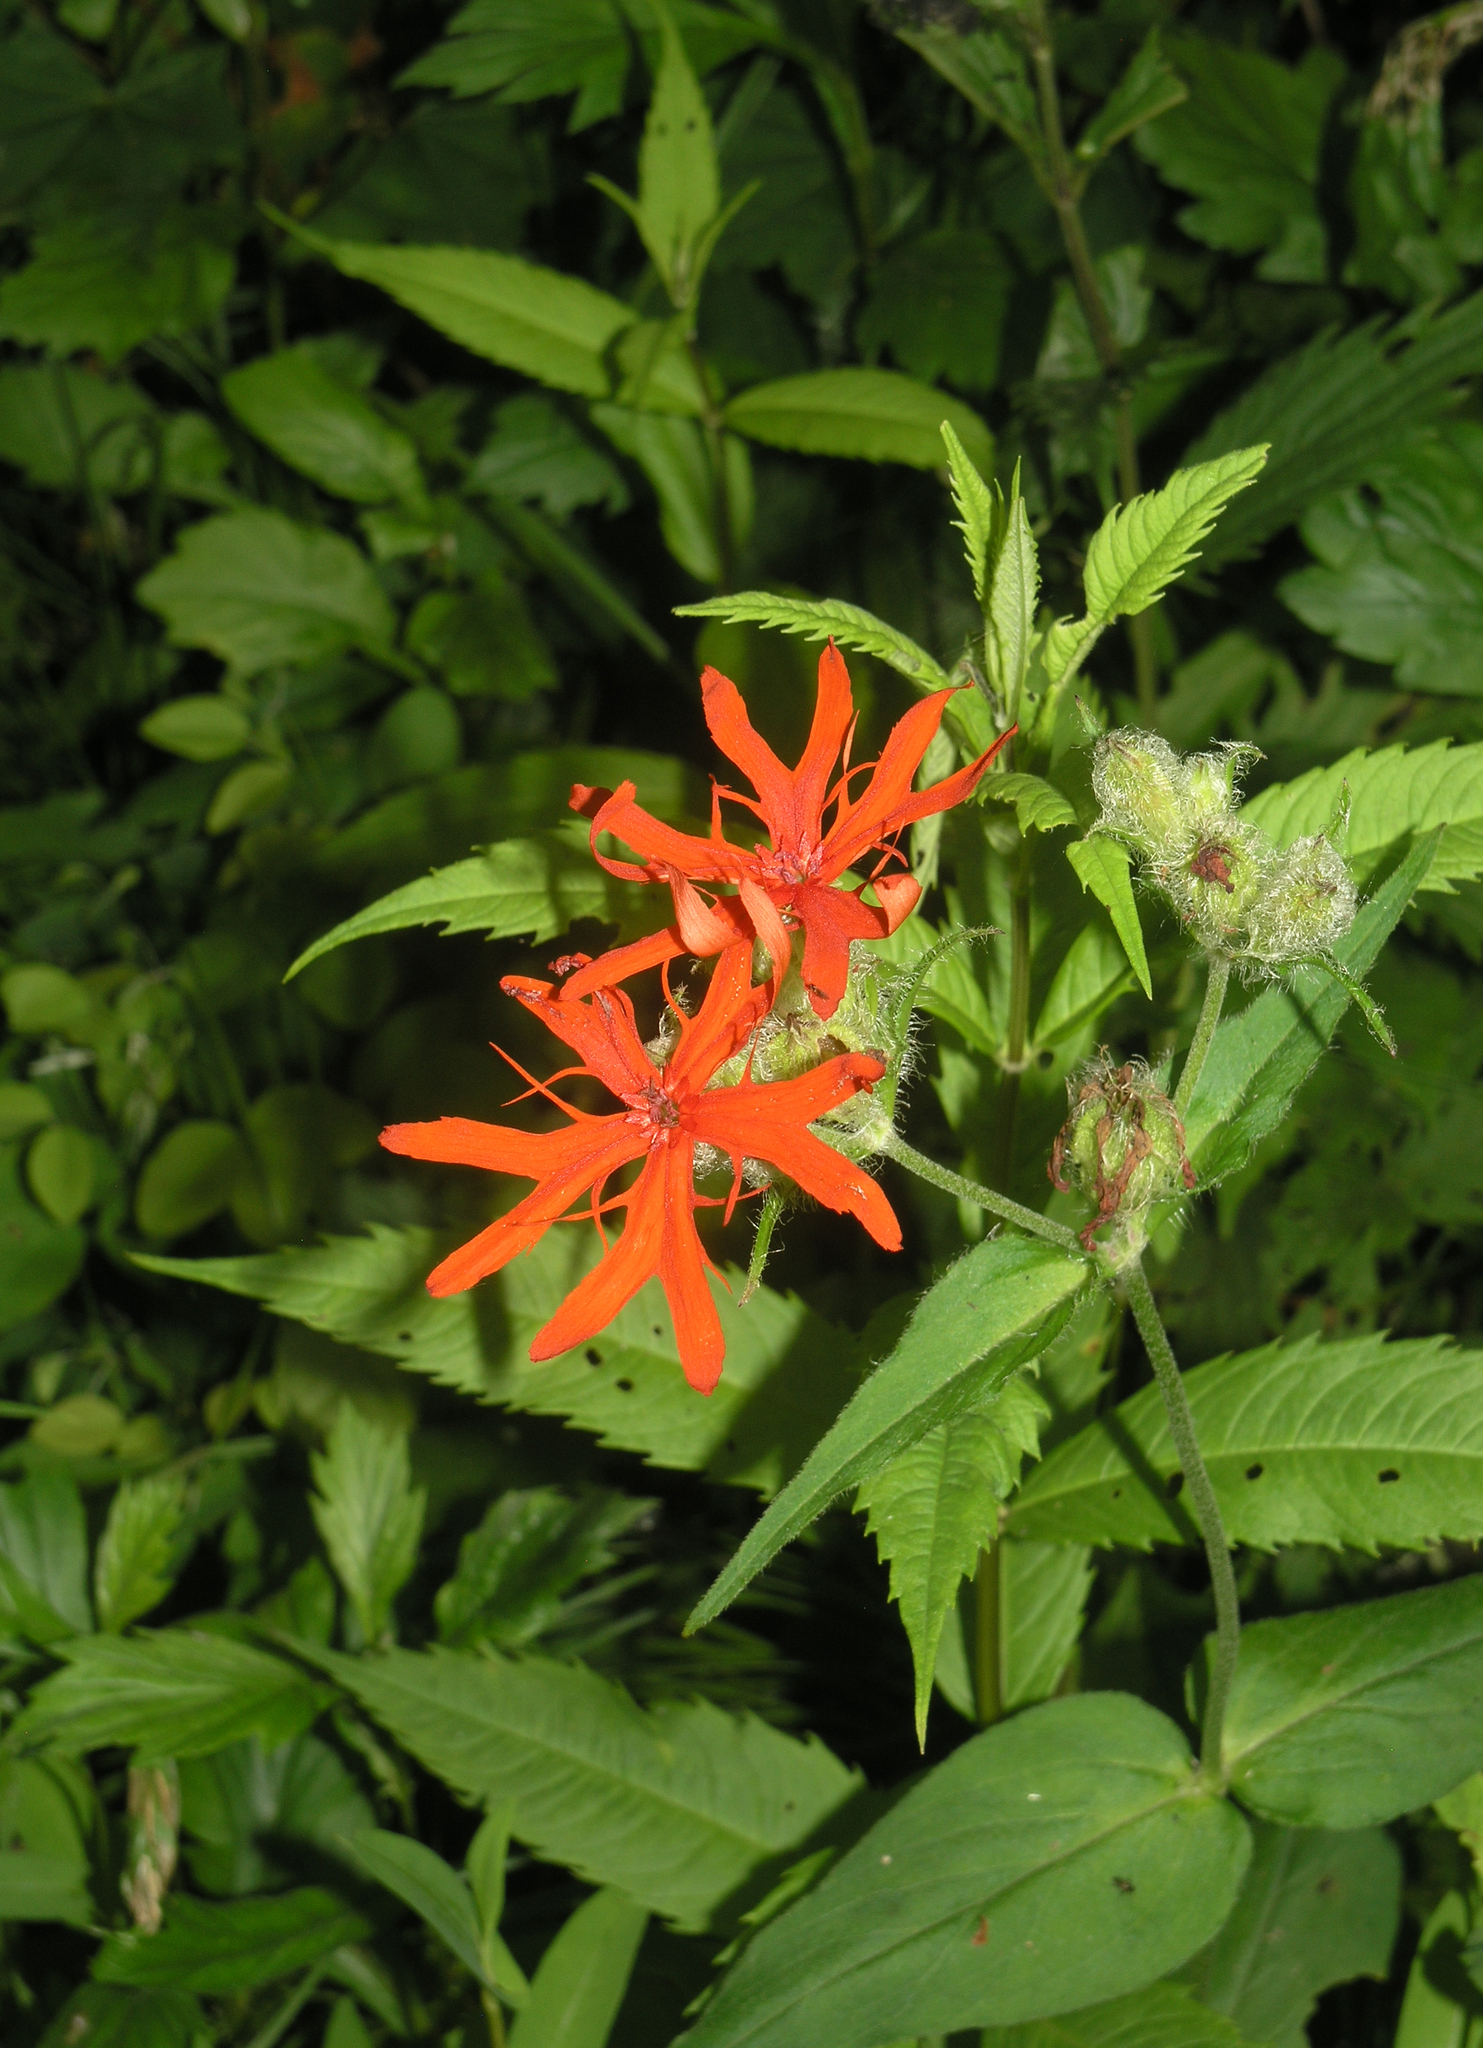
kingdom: Plantae
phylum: Tracheophyta
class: Magnoliopsida
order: Caryophyllales
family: Caryophyllaceae
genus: Silene
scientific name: Silene banksia
